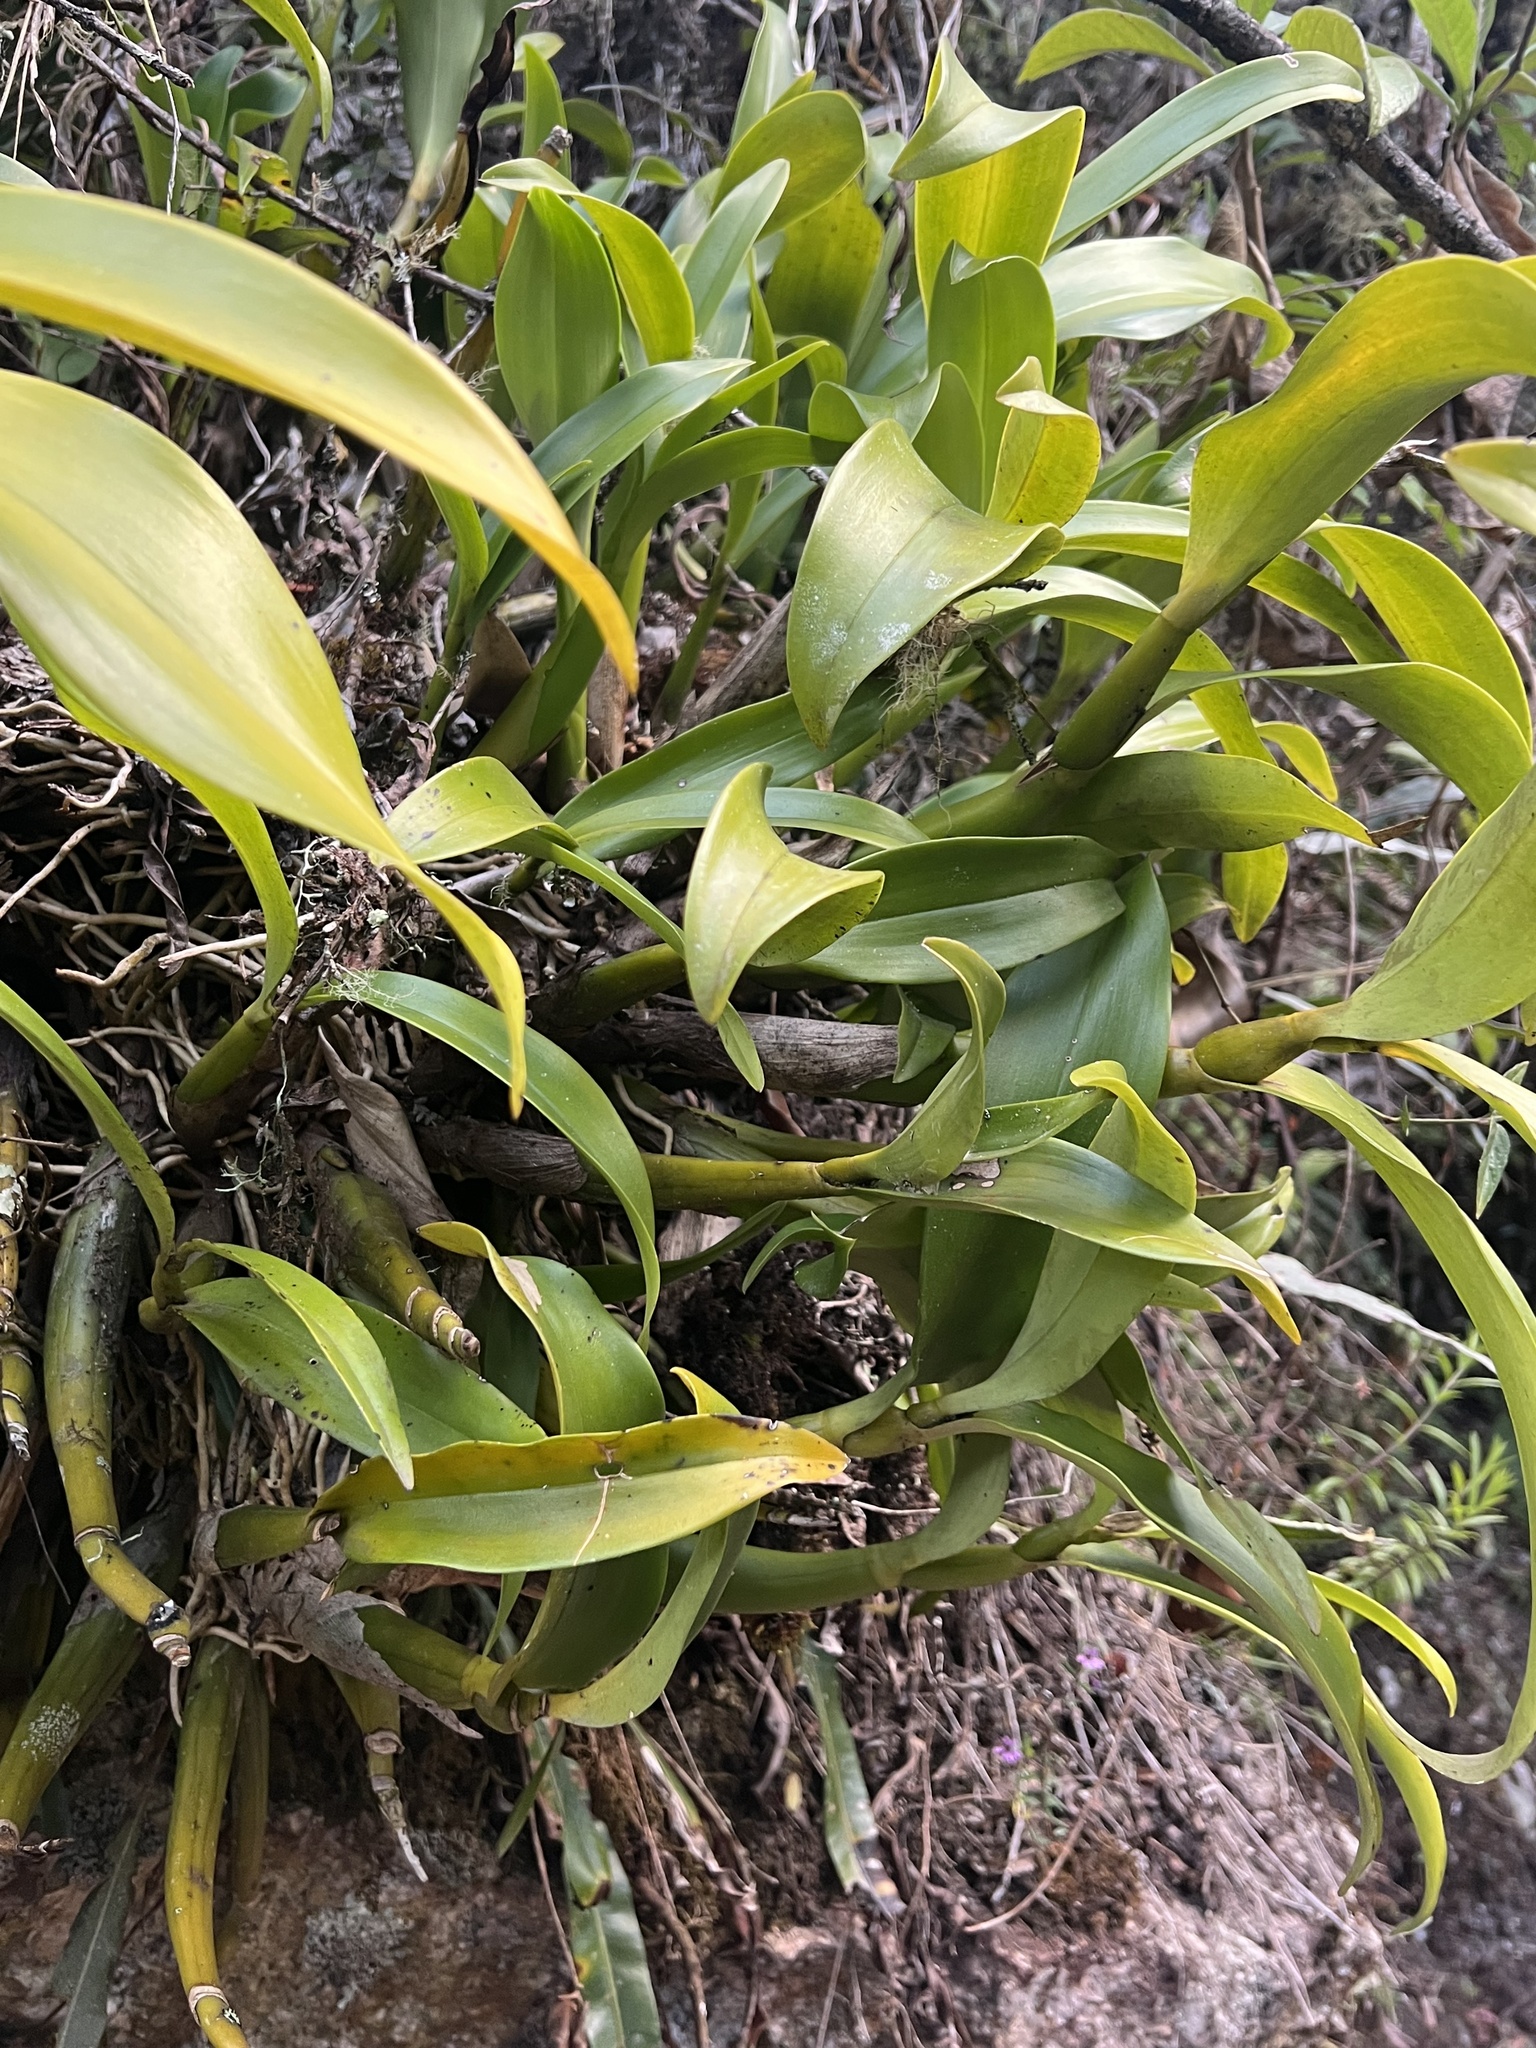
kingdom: Plantae
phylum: Tracheophyta
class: Liliopsida
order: Asparagales
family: Orchidaceae
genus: Prosthechea
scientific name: Prosthechea crassilabia
